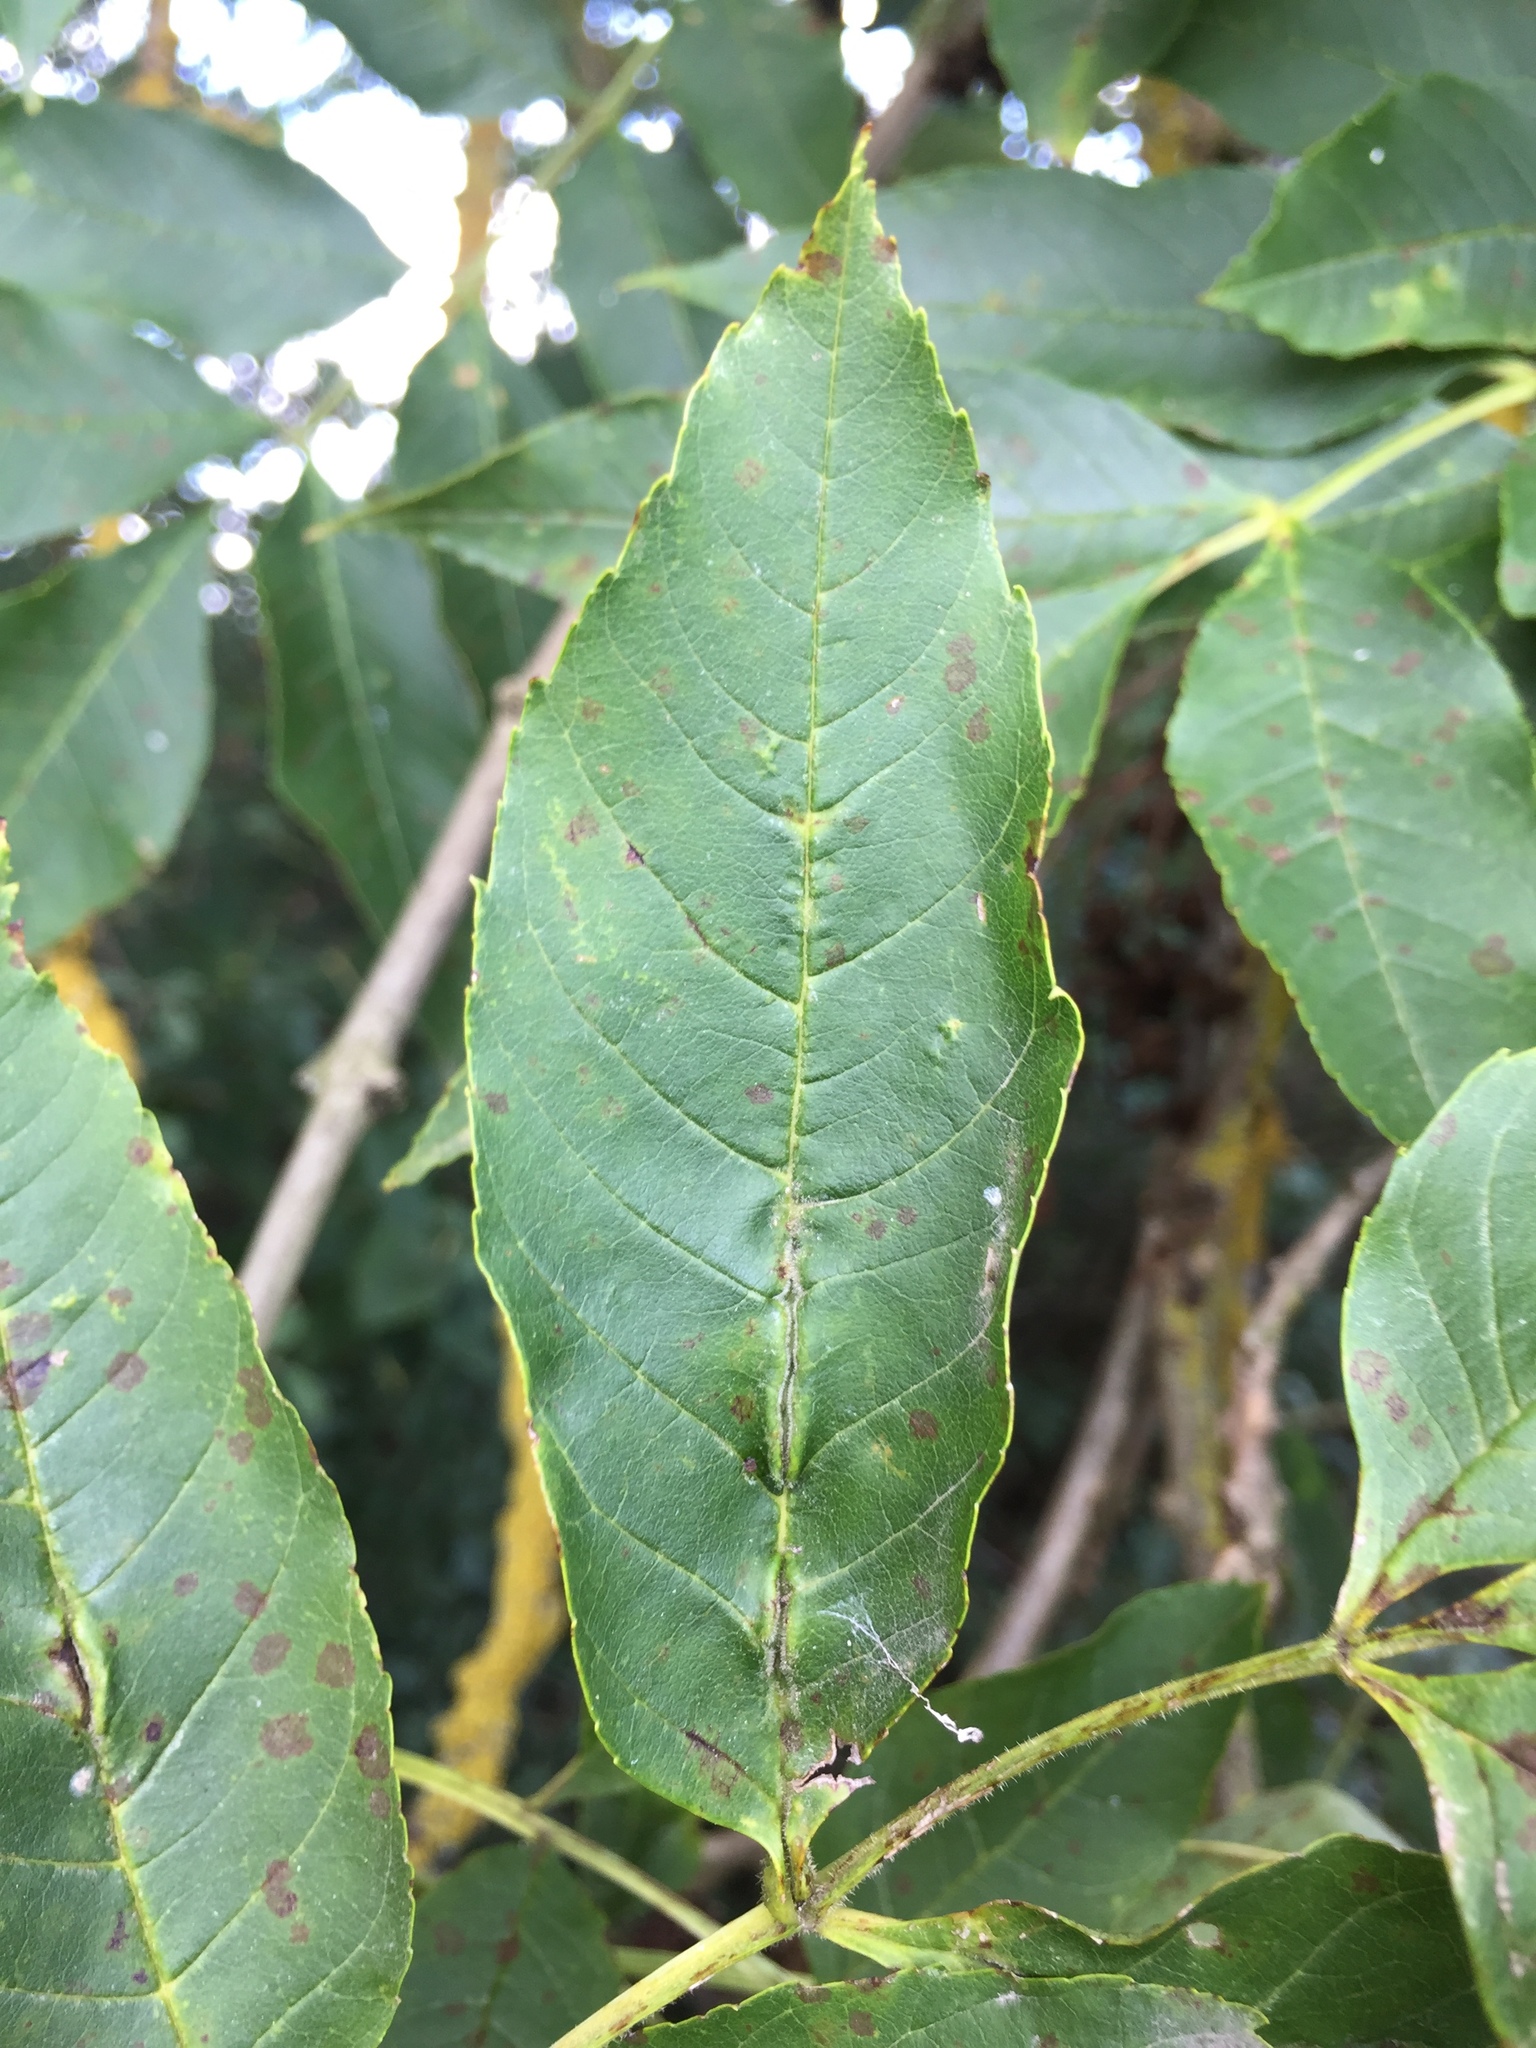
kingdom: Animalia
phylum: Arthropoda
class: Insecta
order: Diptera
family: Cecidomyiidae
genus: Dasineura
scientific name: Dasineura fraxini
